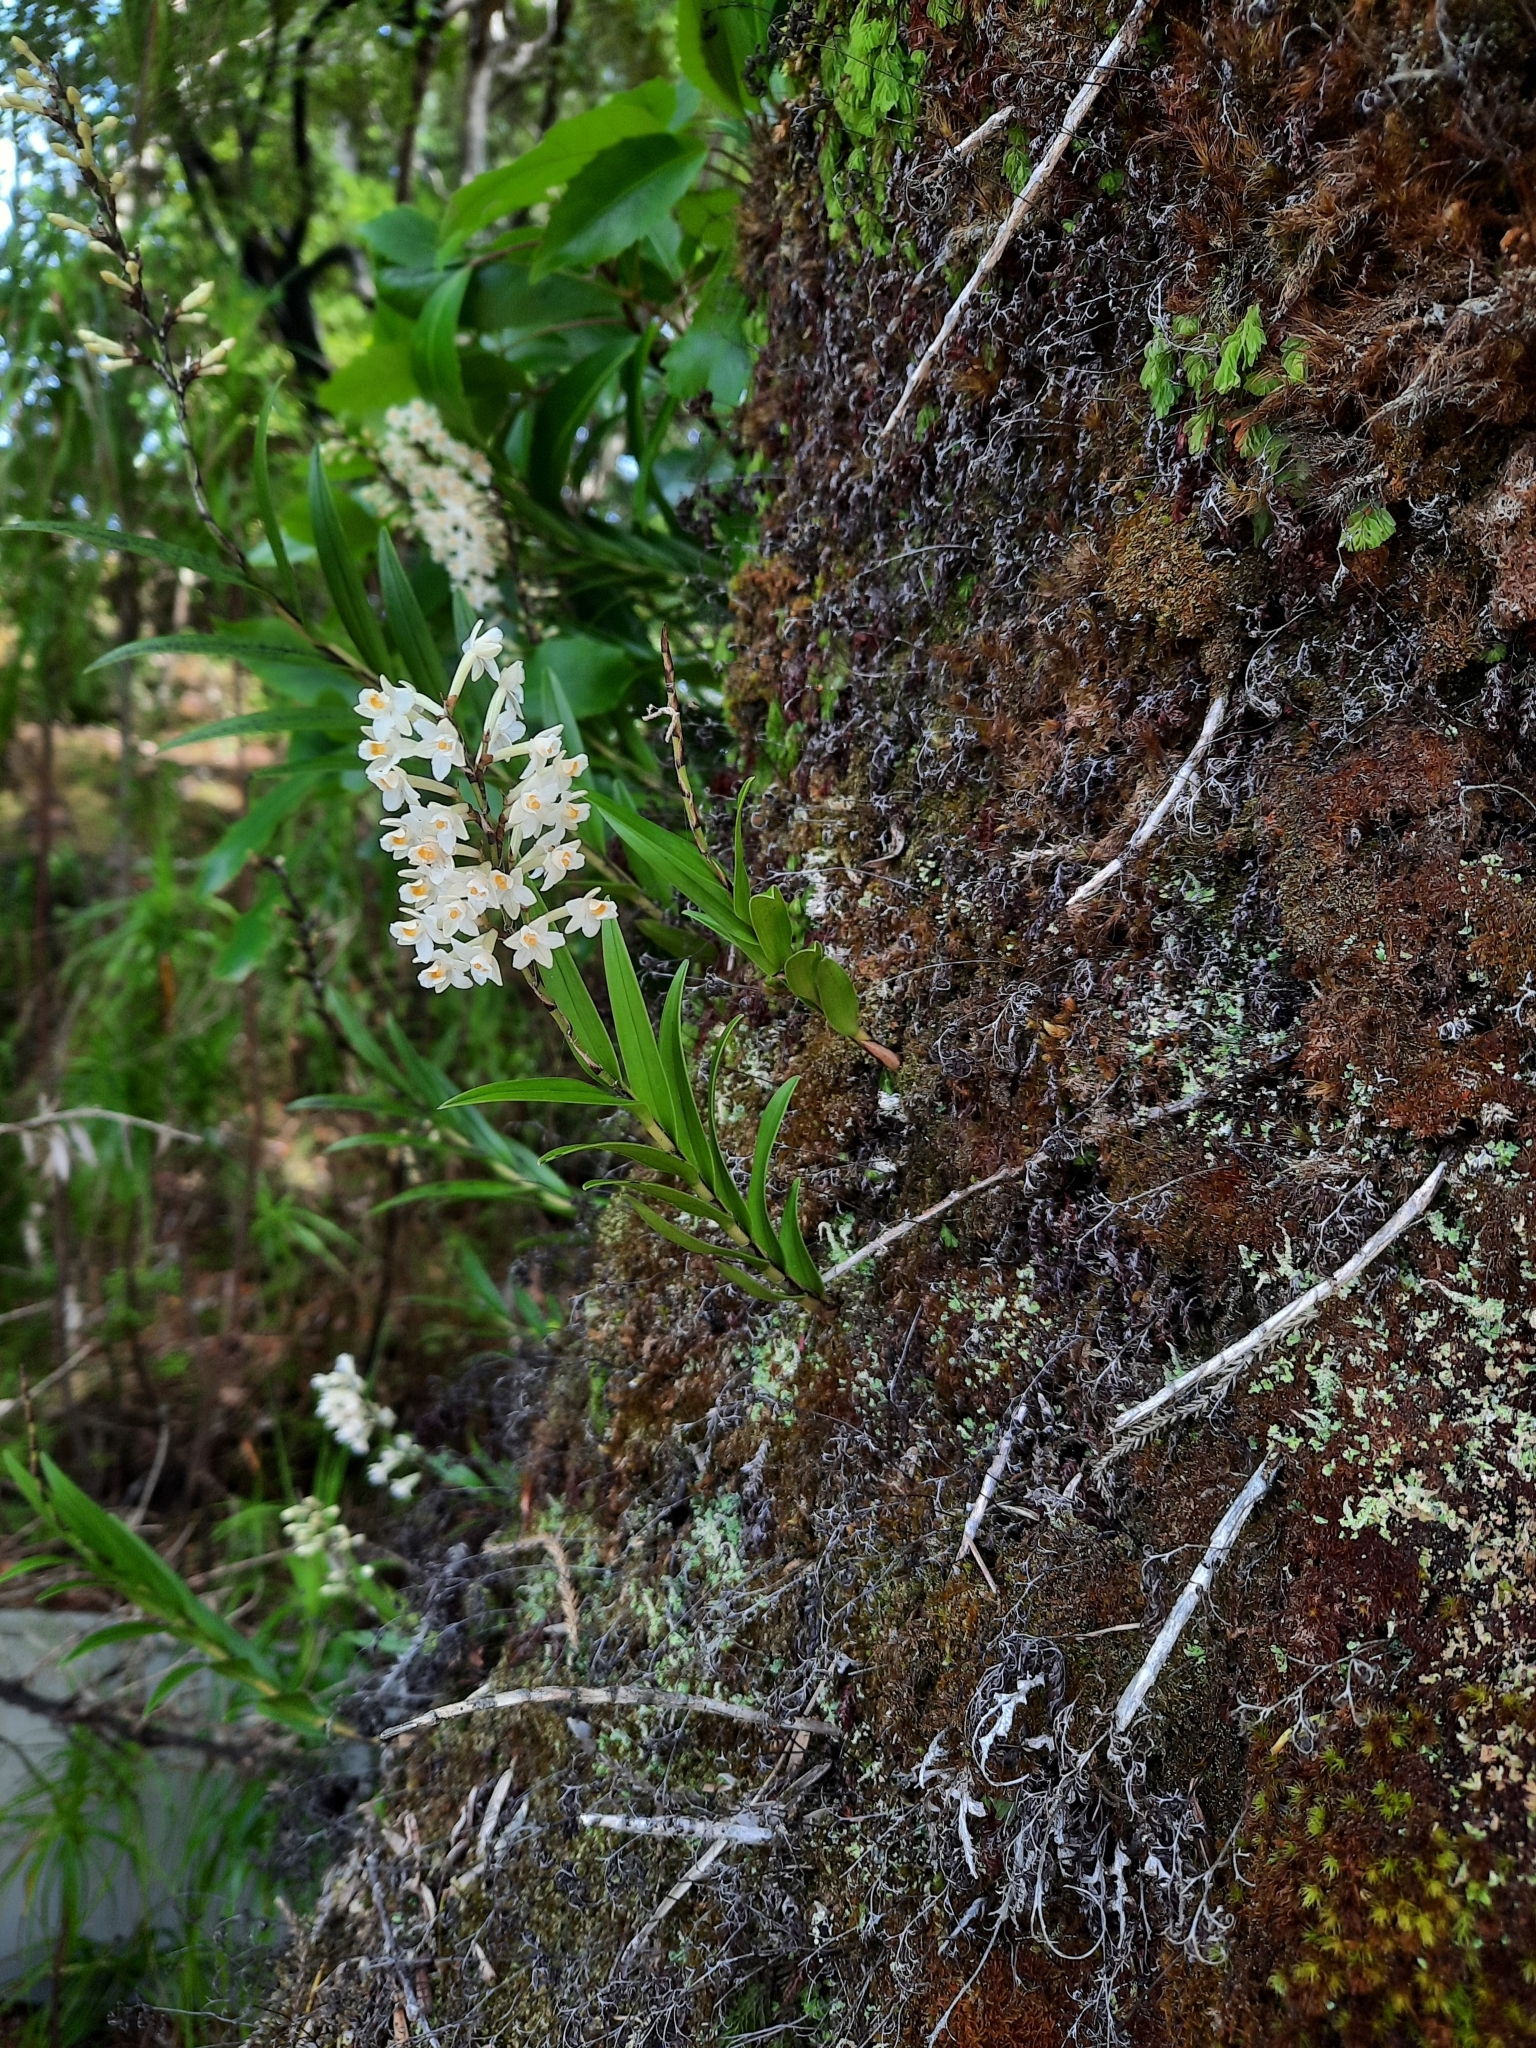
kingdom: Plantae
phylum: Tracheophyta
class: Liliopsida
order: Asparagales
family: Orchidaceae
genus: Earina
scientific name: Earina autumnalis
